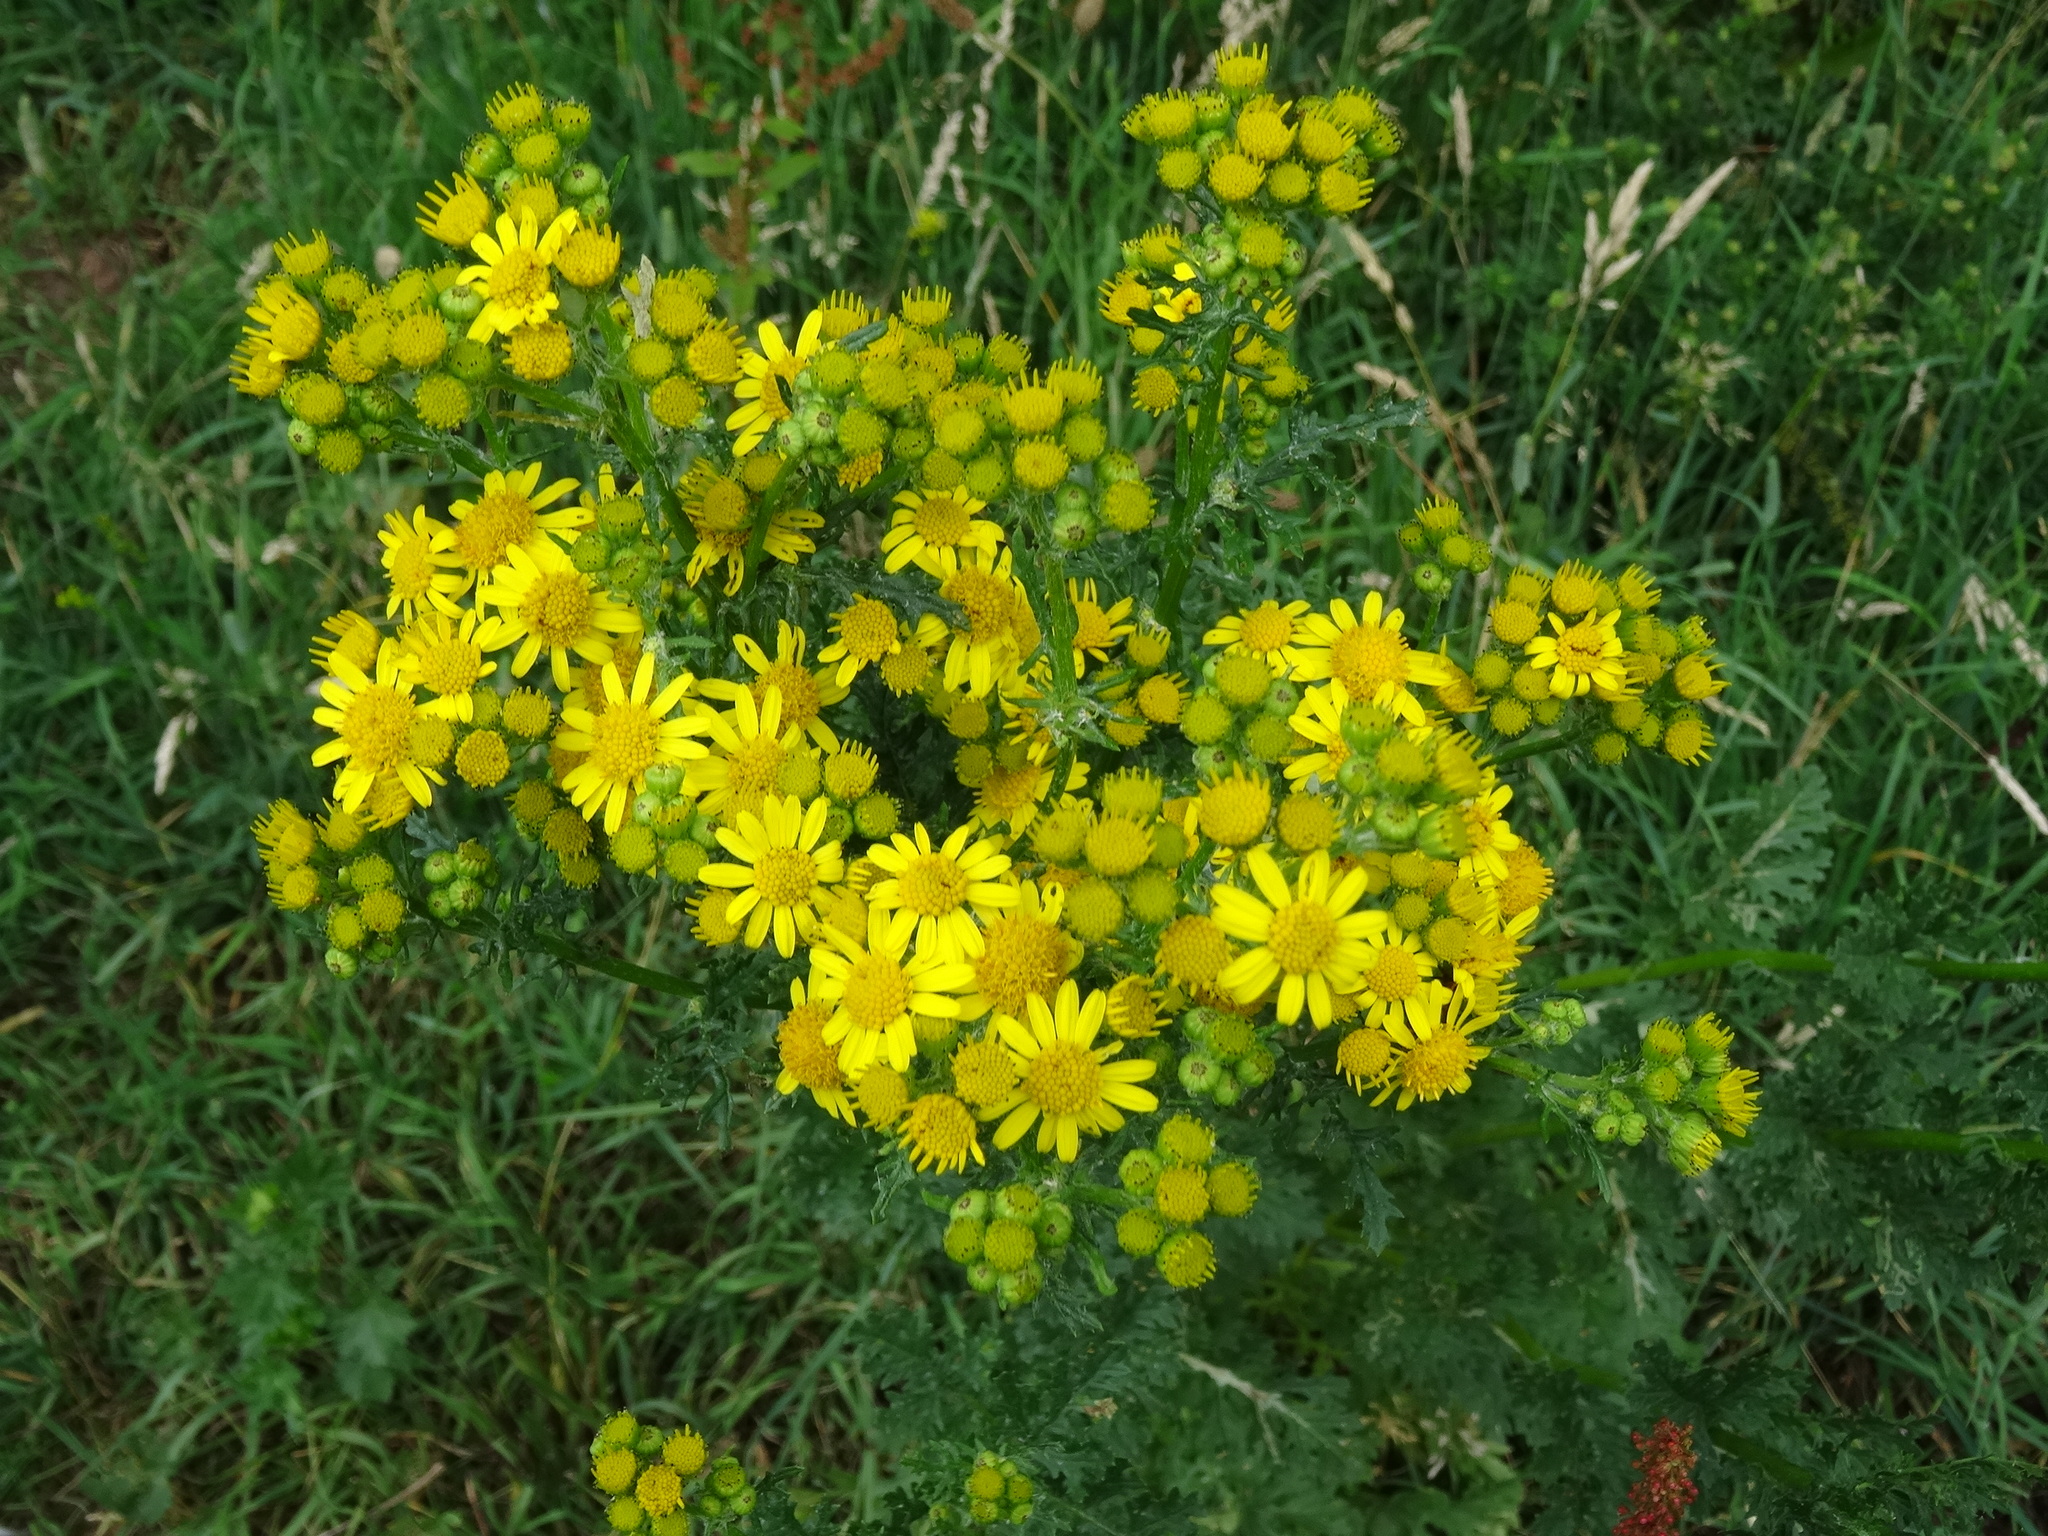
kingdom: Plantae
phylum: Tracheophyta
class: Magnoliopsida
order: Asterales
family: Asteraceae
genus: Jacobaea
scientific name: Jacobaea vulgaris
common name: Stinking willie
